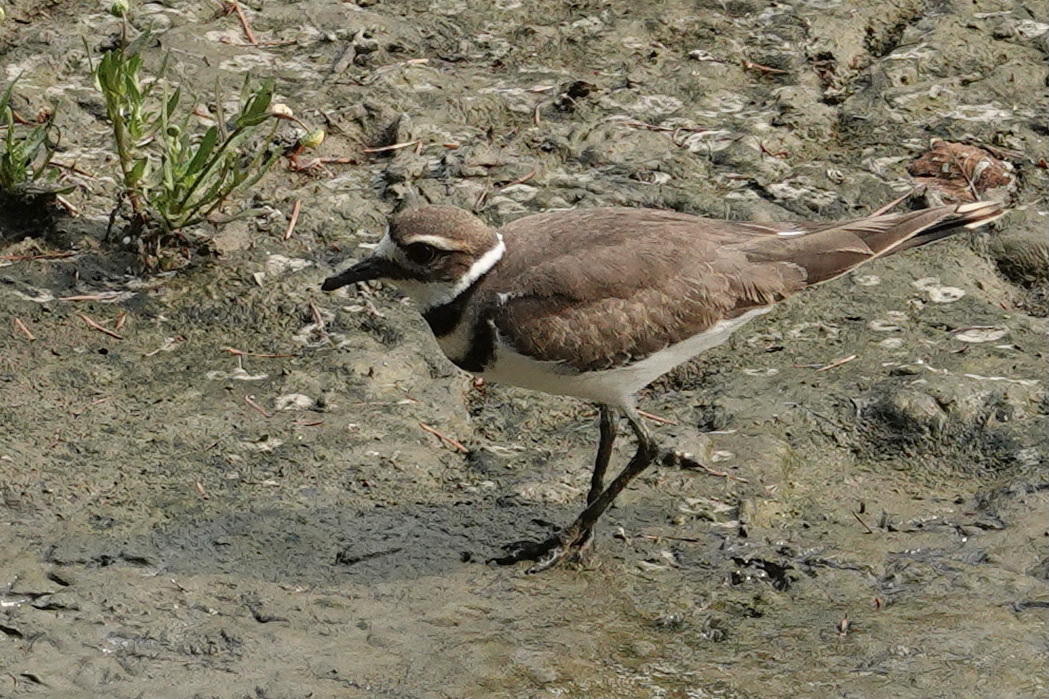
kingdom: Animalia
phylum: Chordata
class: Aves
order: Charadriiformes
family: Charadriidae
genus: Charadrius
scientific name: Charadrius vociferus
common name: Killdeer
